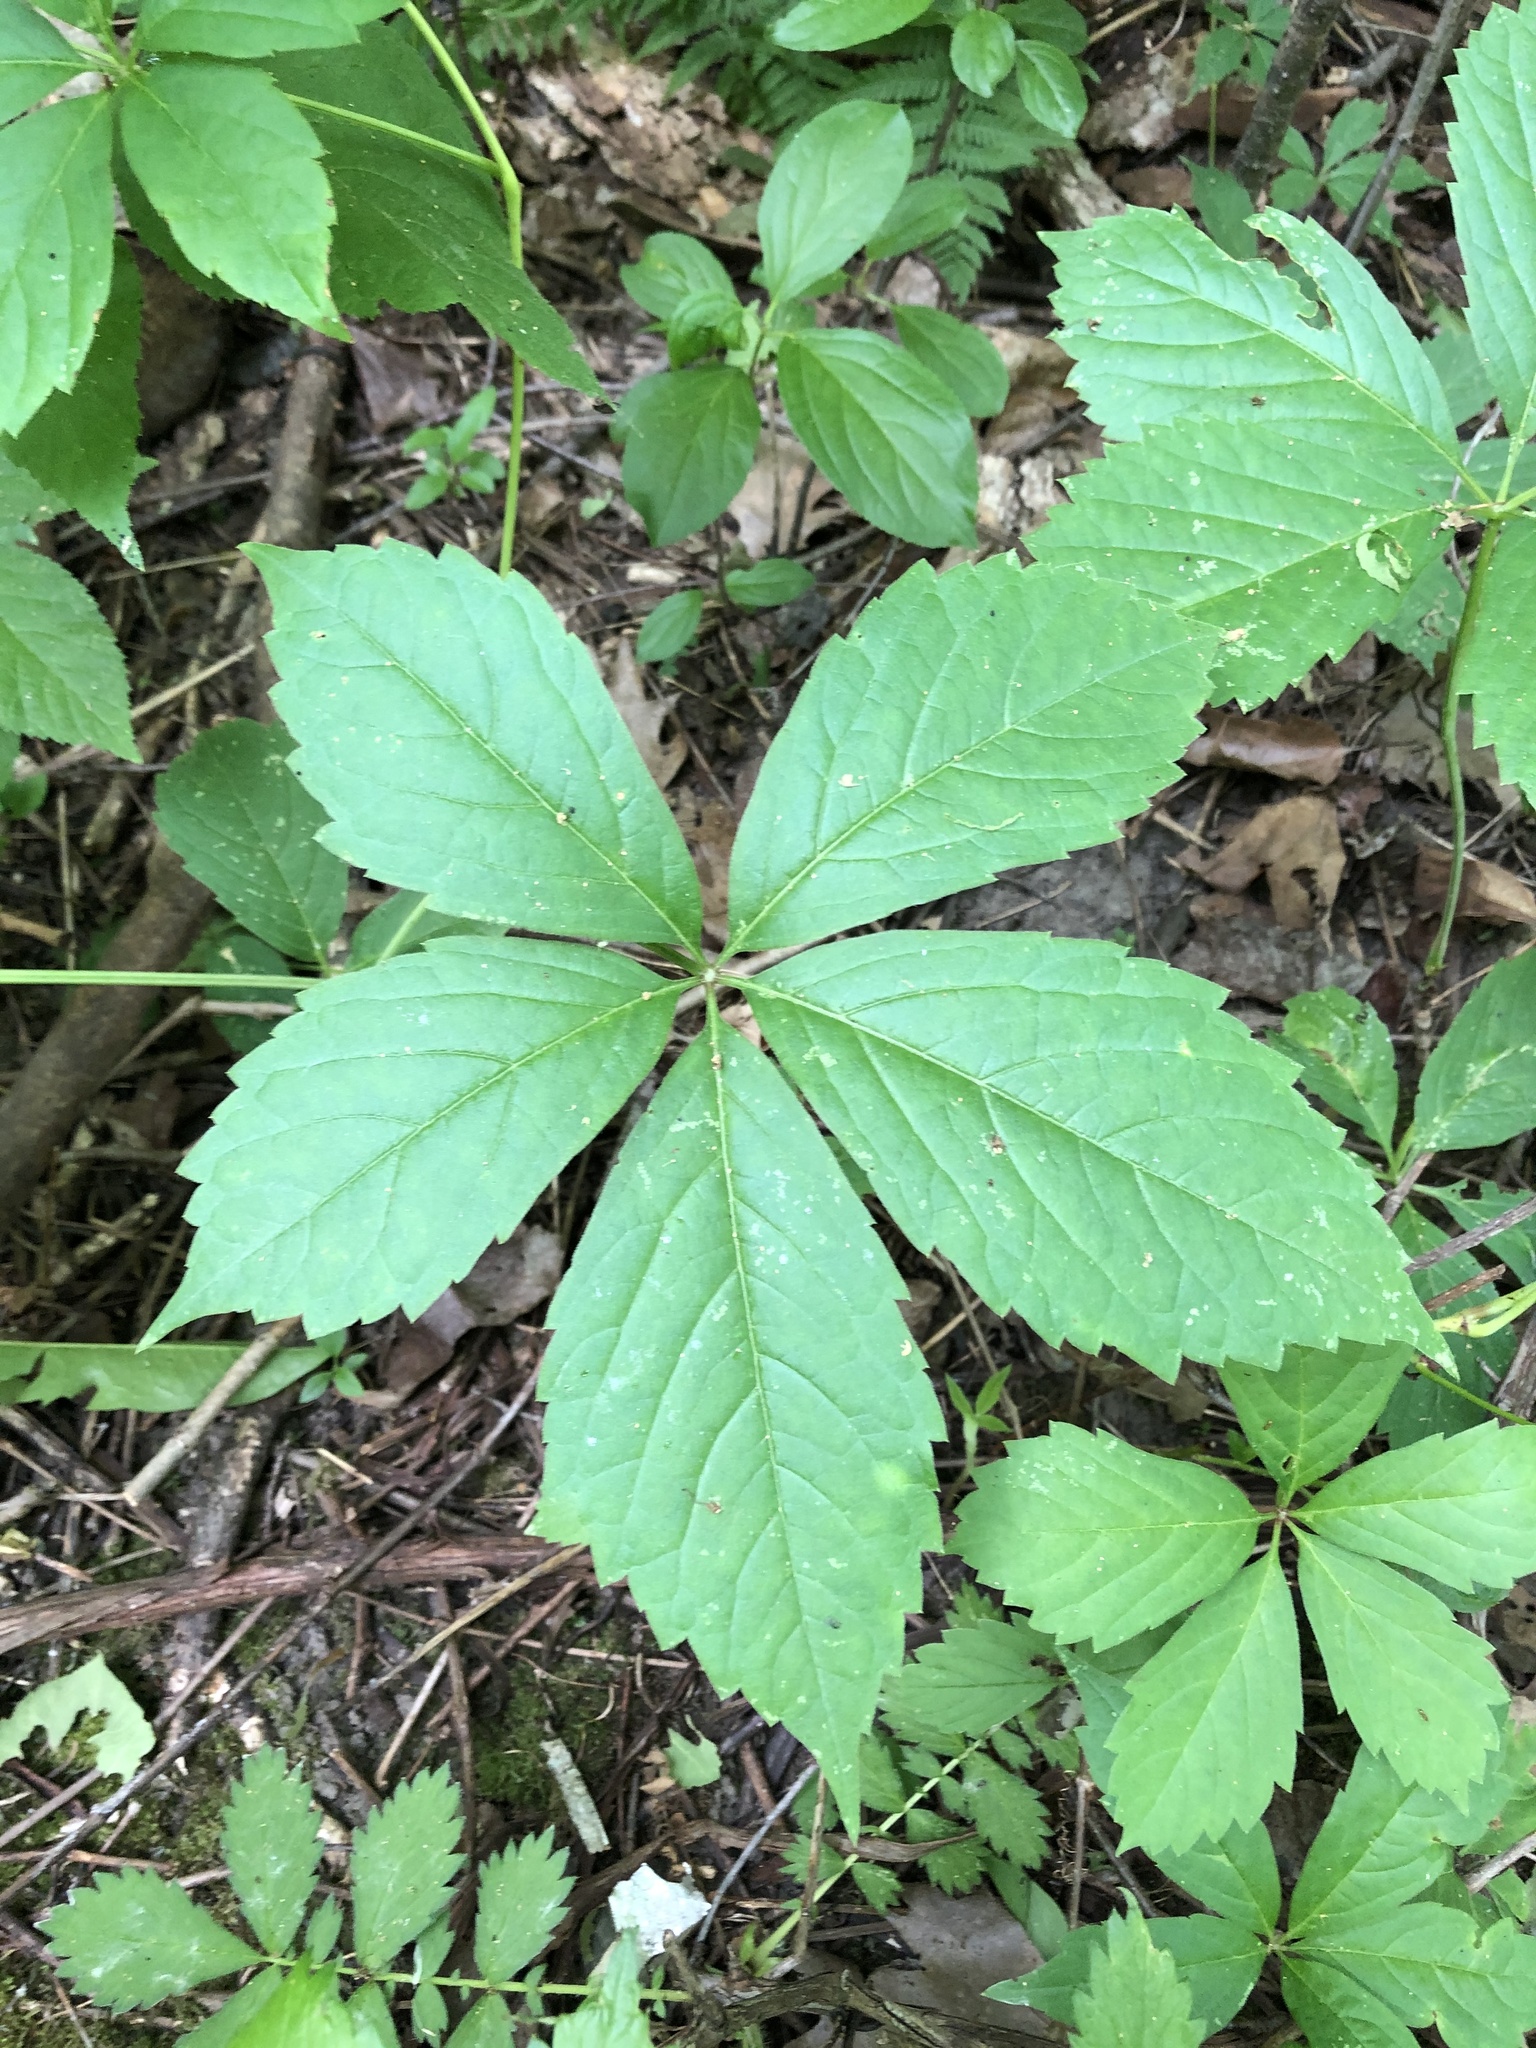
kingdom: Plantae
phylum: Tracheophyta
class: Magnoliopsida
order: Vitales
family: Vitaceae
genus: Parthenocissus
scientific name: Parthenocissus quinquefolia
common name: Virginia-creeper
